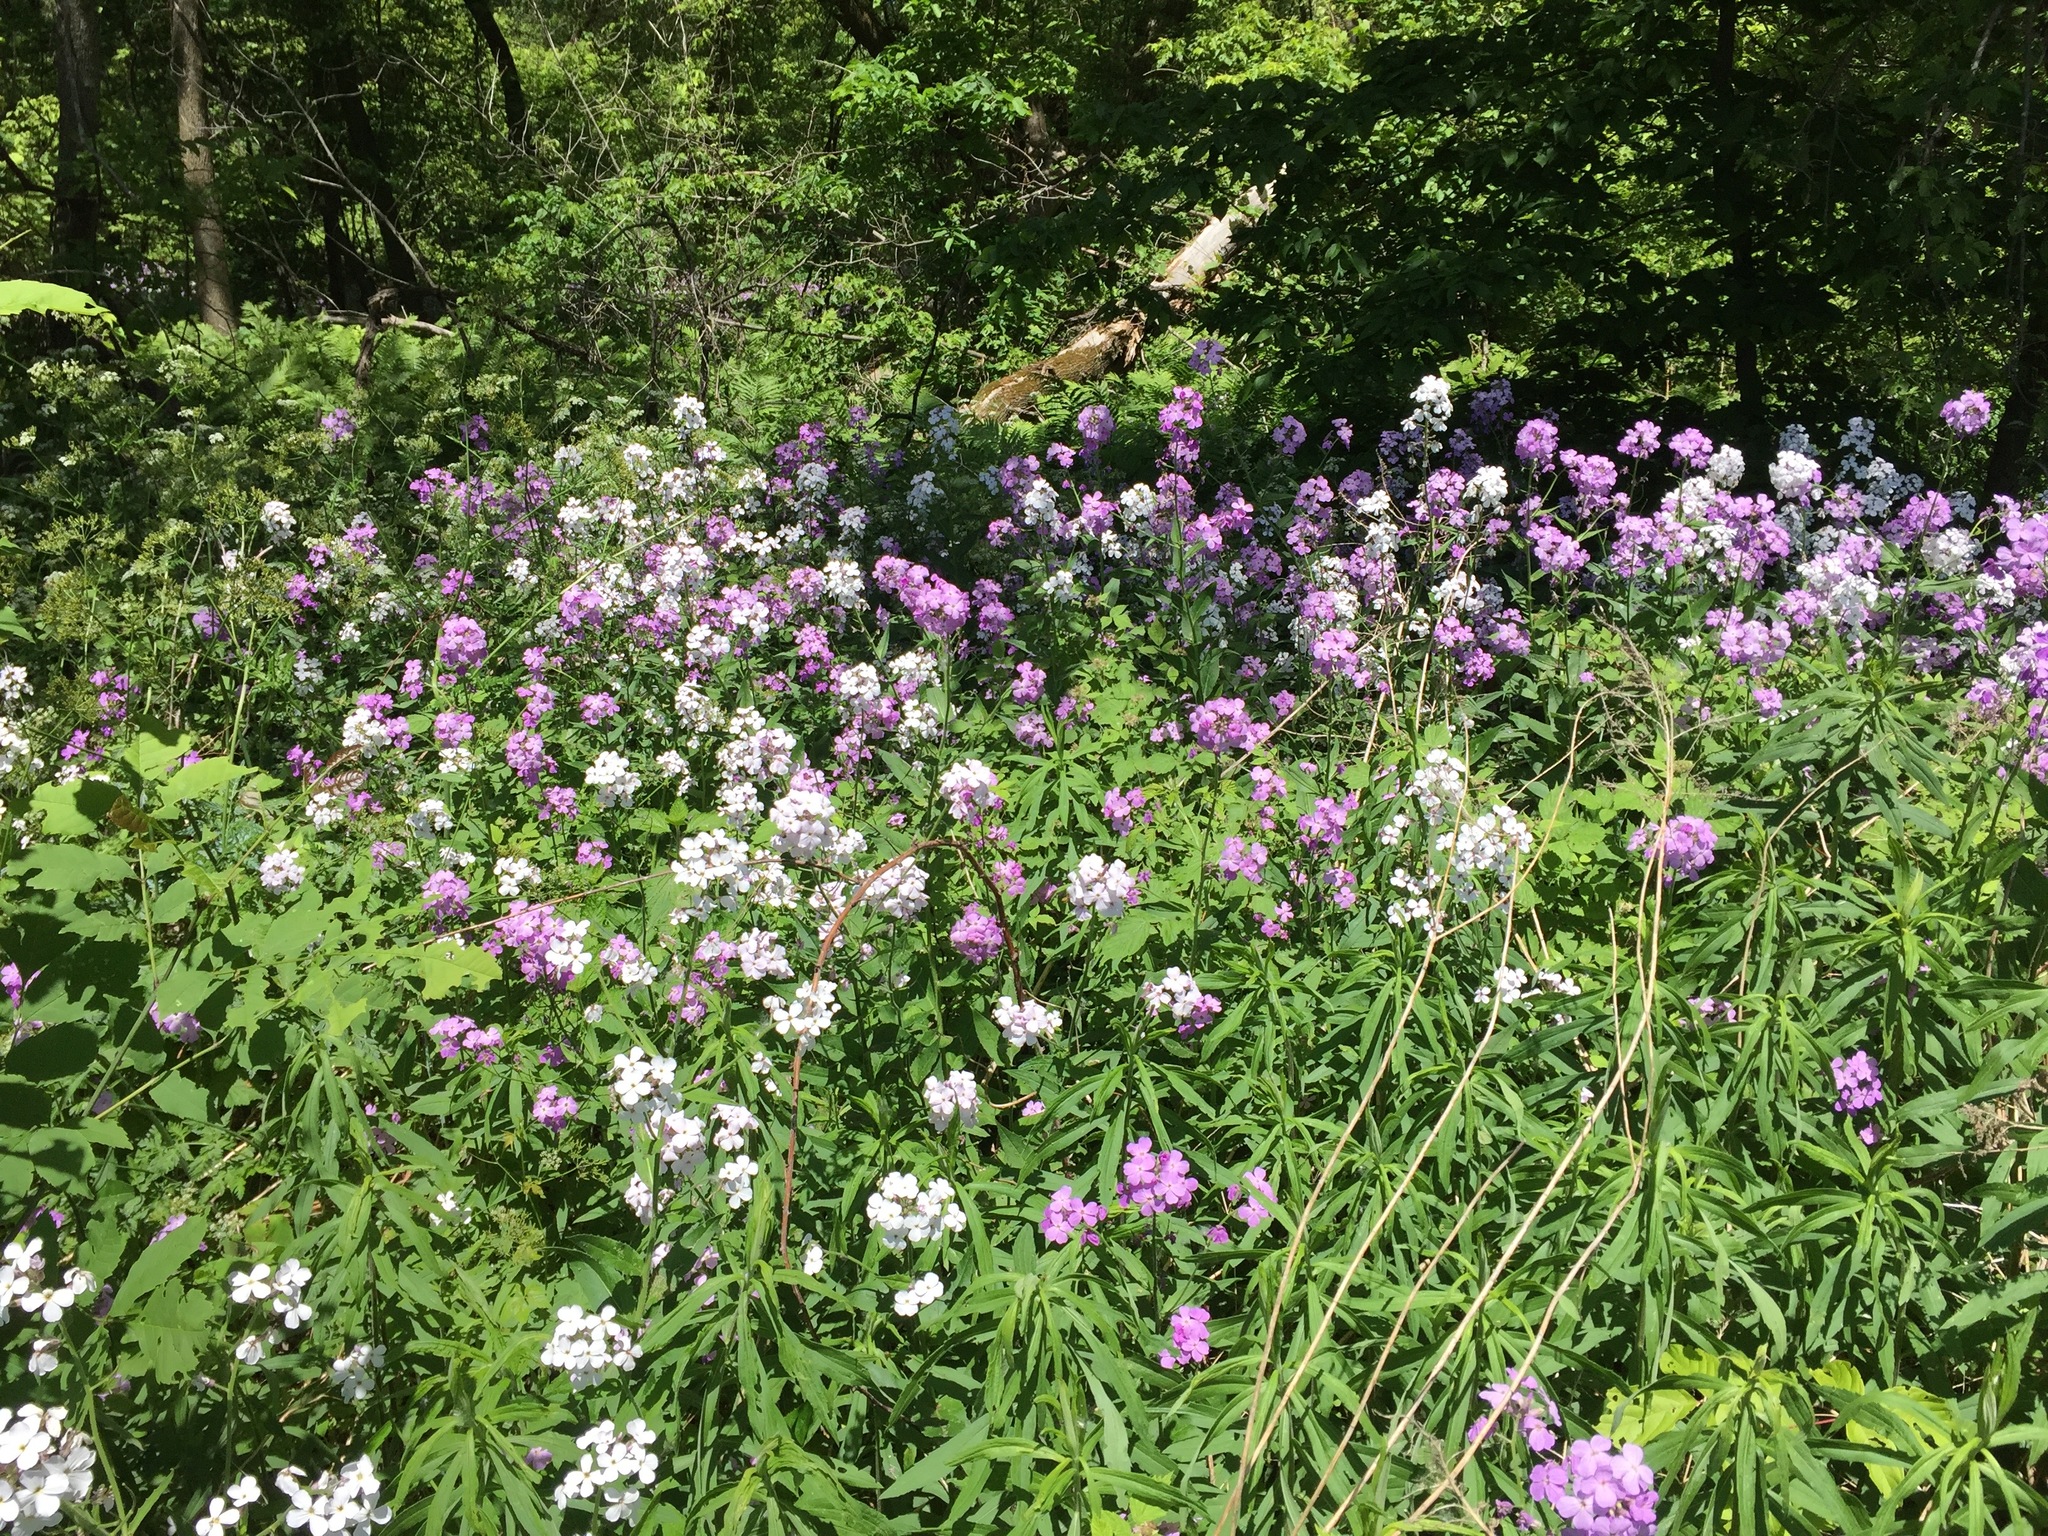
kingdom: Plantae
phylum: Tracheophyta
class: Magnoliopsida
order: Brassicales
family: Brassicaceae
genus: Hesperis
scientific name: Hesperis matronalis
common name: Dame's-violet
